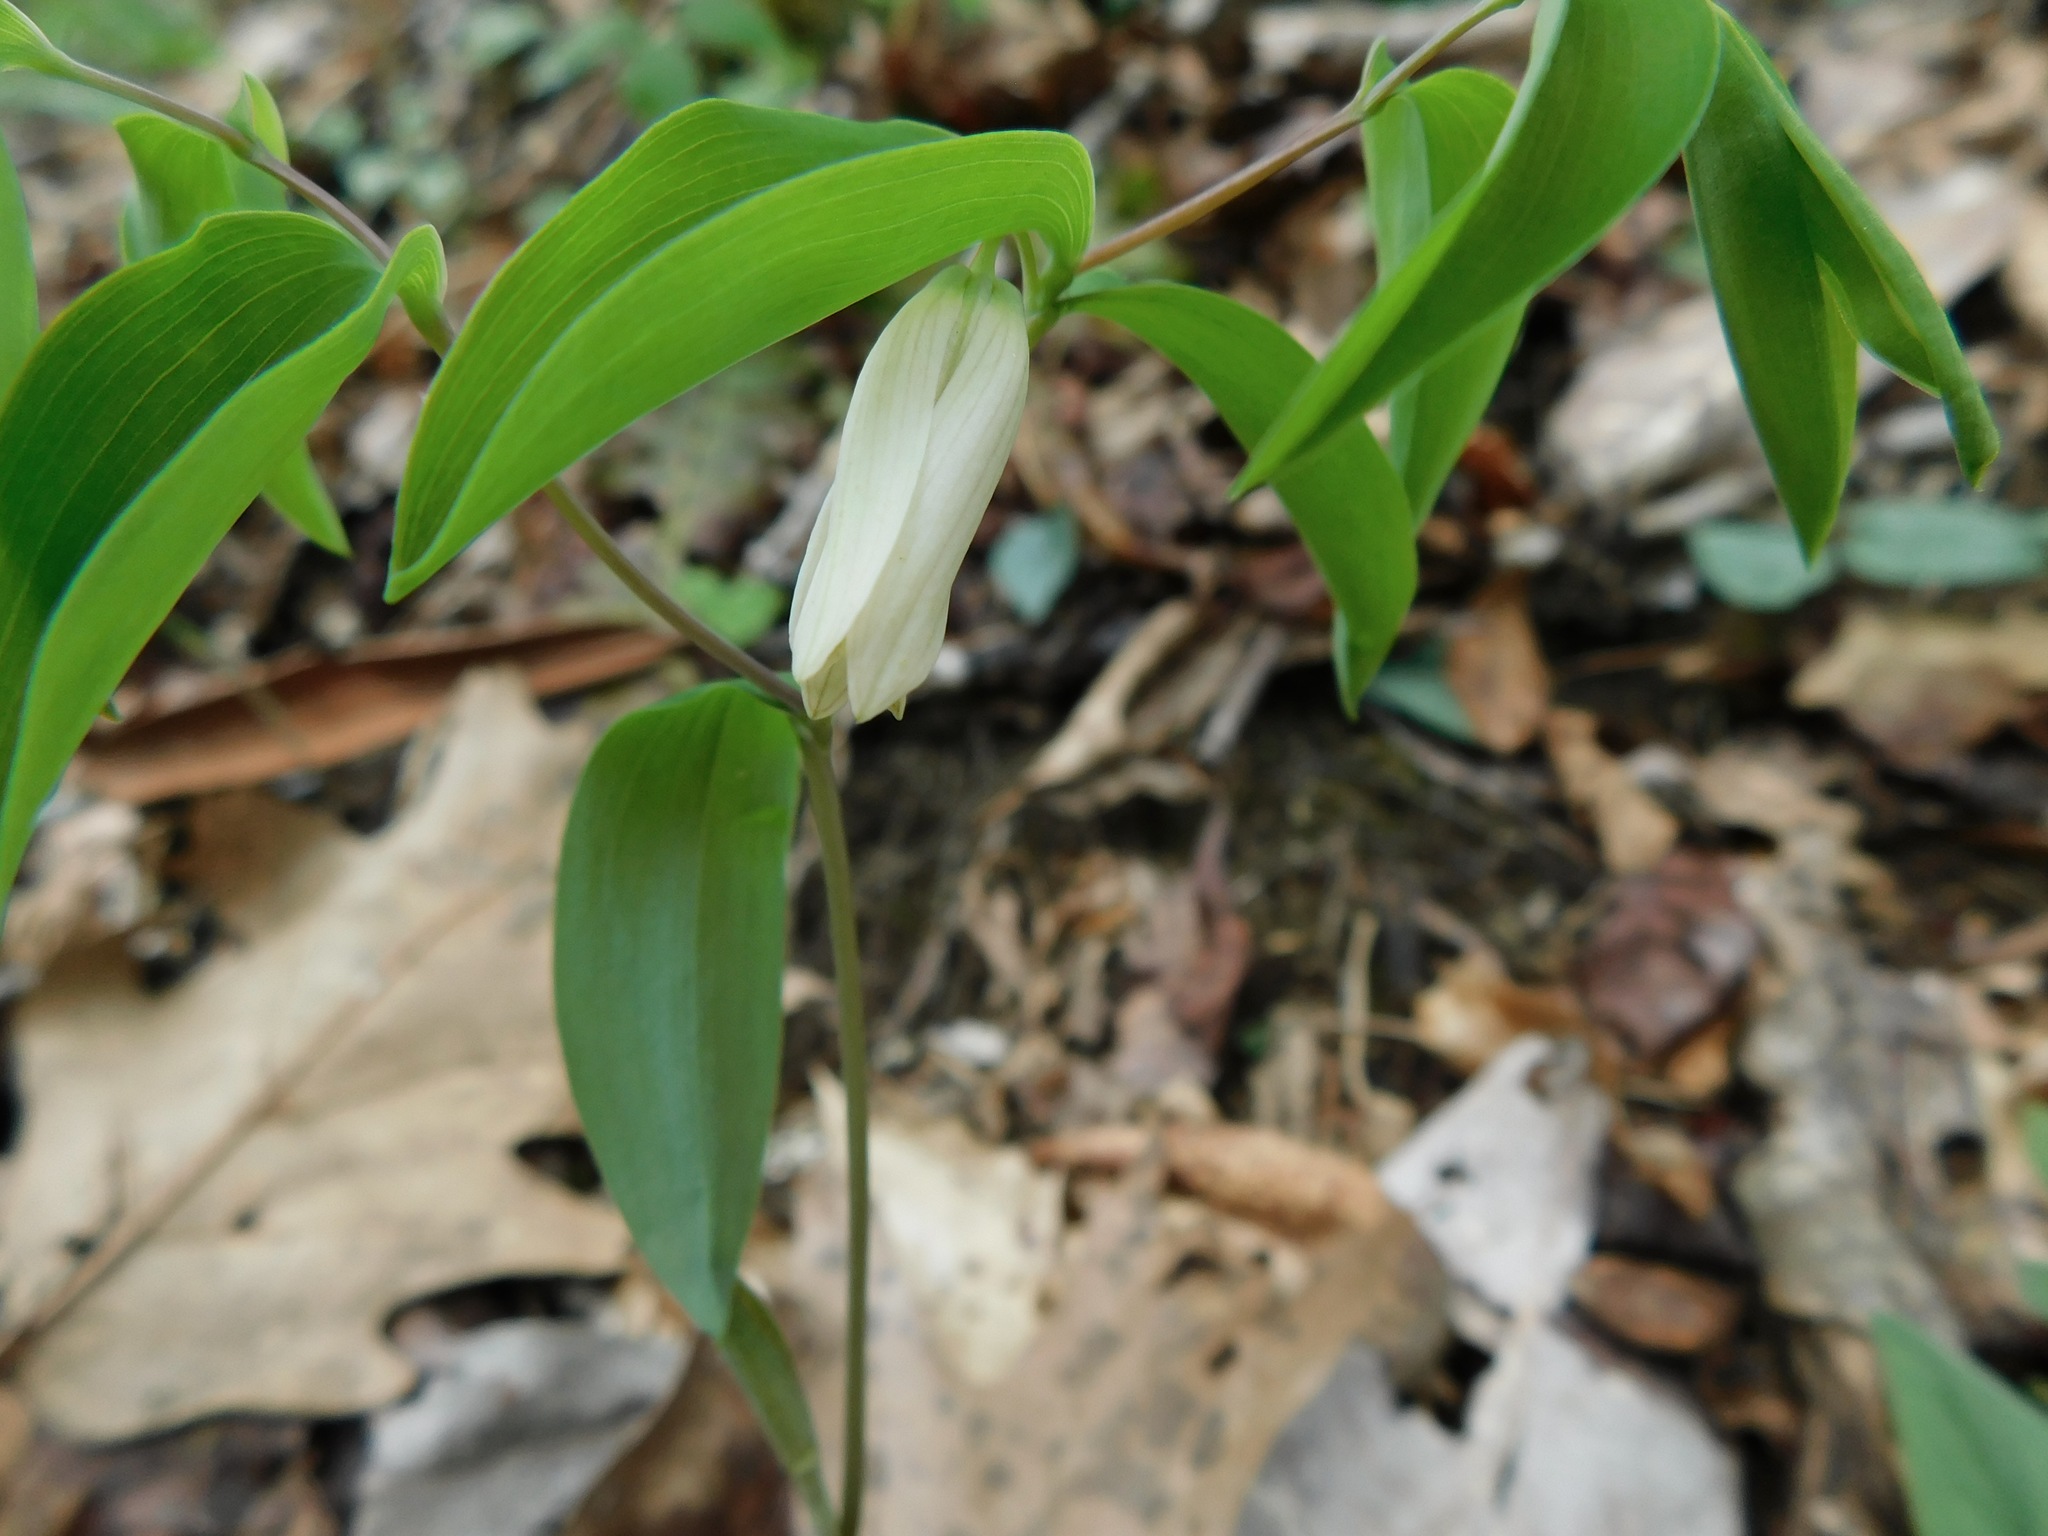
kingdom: Plantae
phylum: Tracheophyta
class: Liliopsida
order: Liliales
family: Colchicaceae
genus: Uvularia
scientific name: Uvularia sessilifolia
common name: Straw-lily
